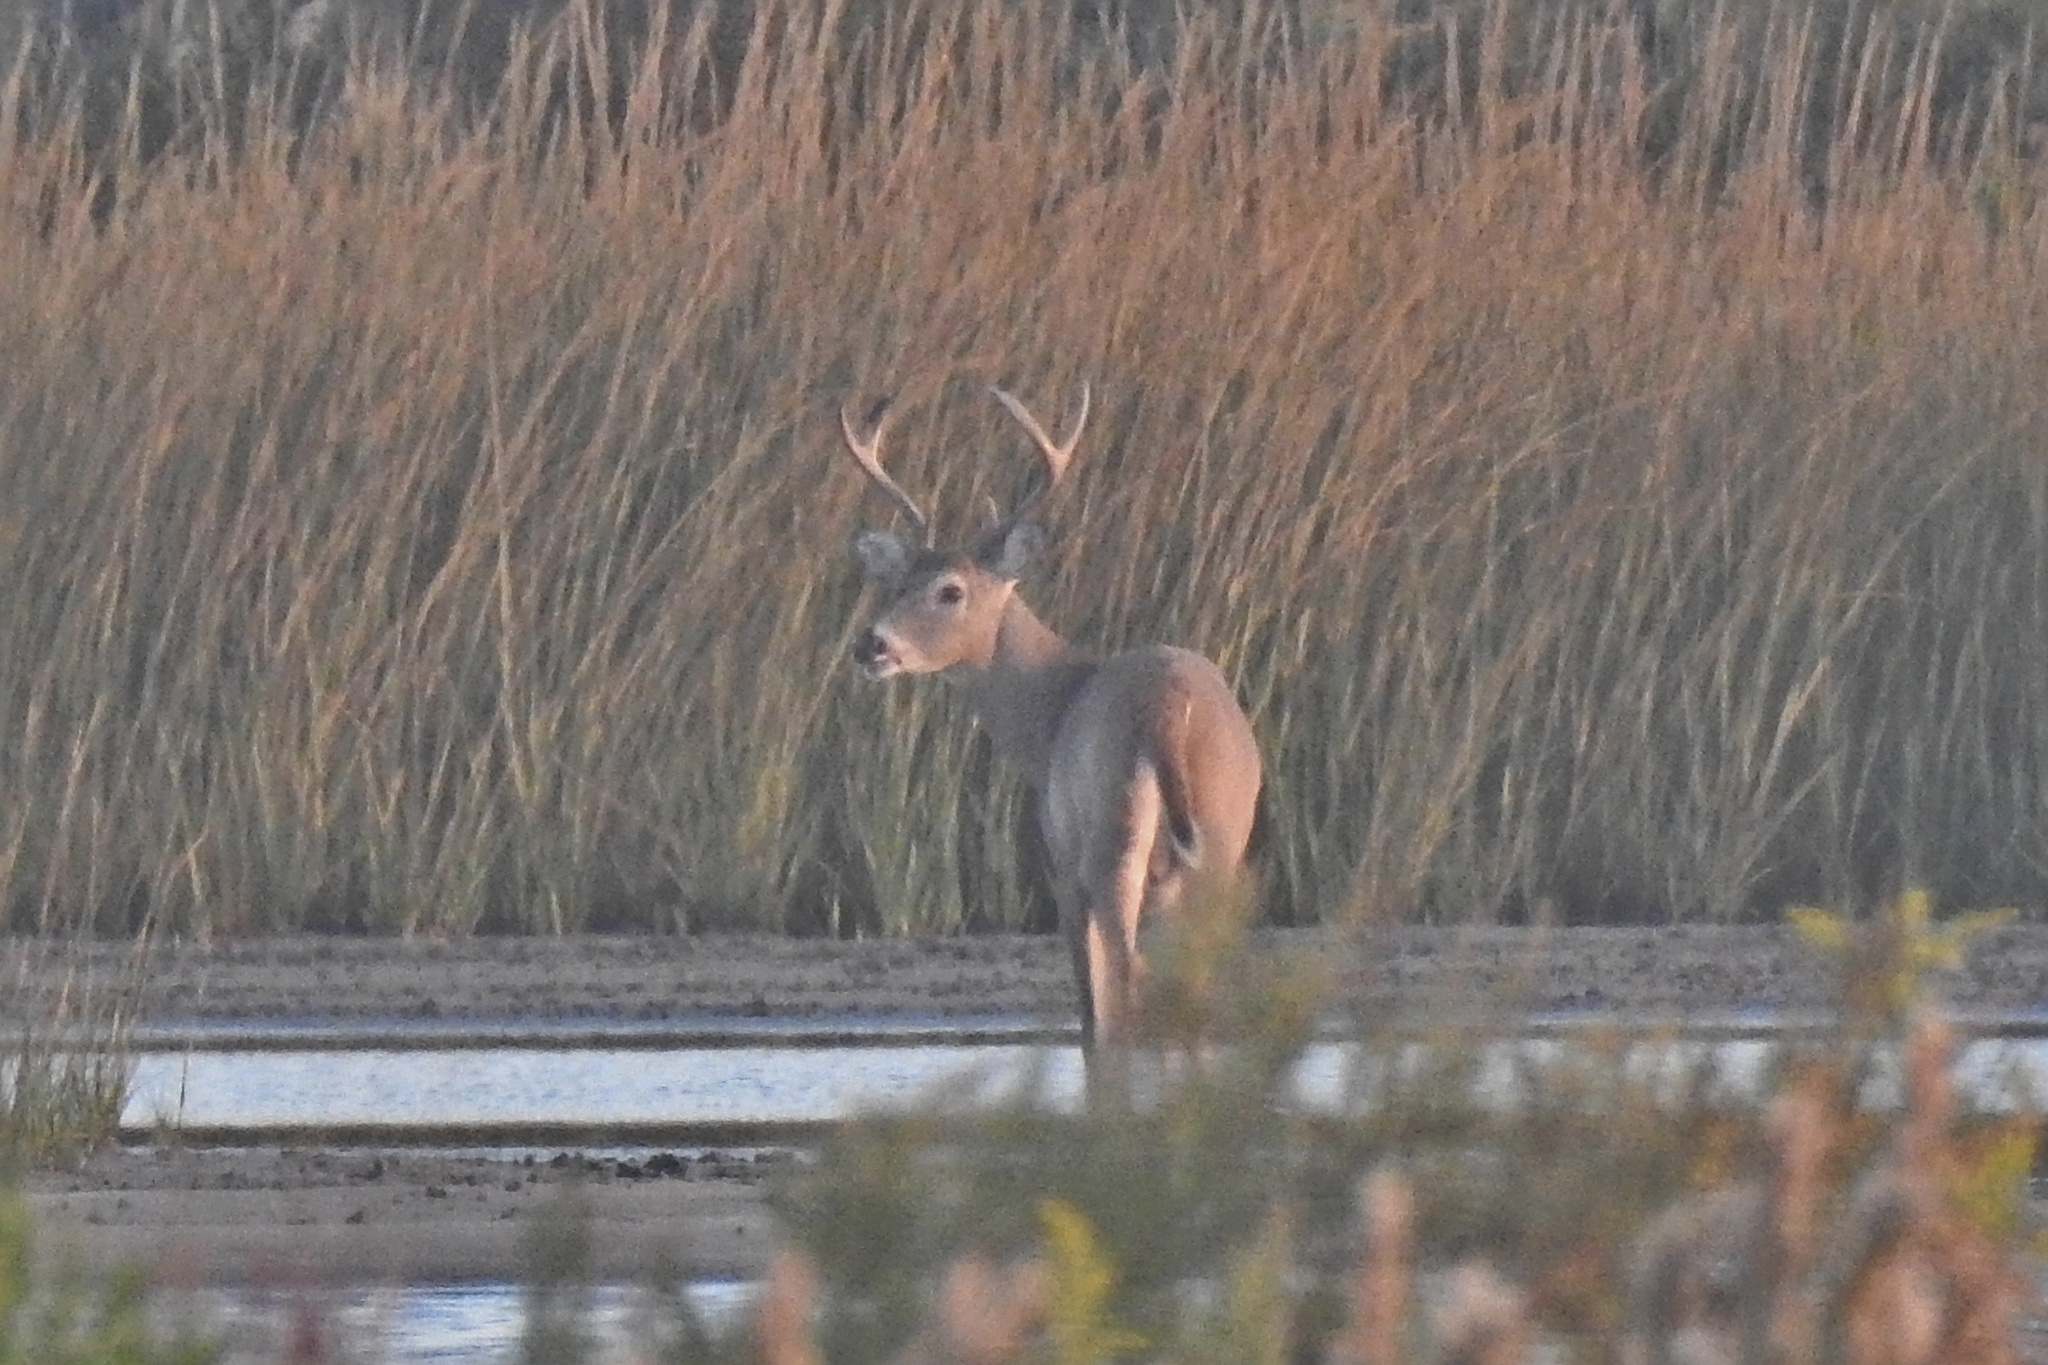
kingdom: Animalia
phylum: Chordata
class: Mammalia
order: Artiodactyla
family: Cervidae
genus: Odocoileus
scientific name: Odocoileus virginianus
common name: White-tailed deer
